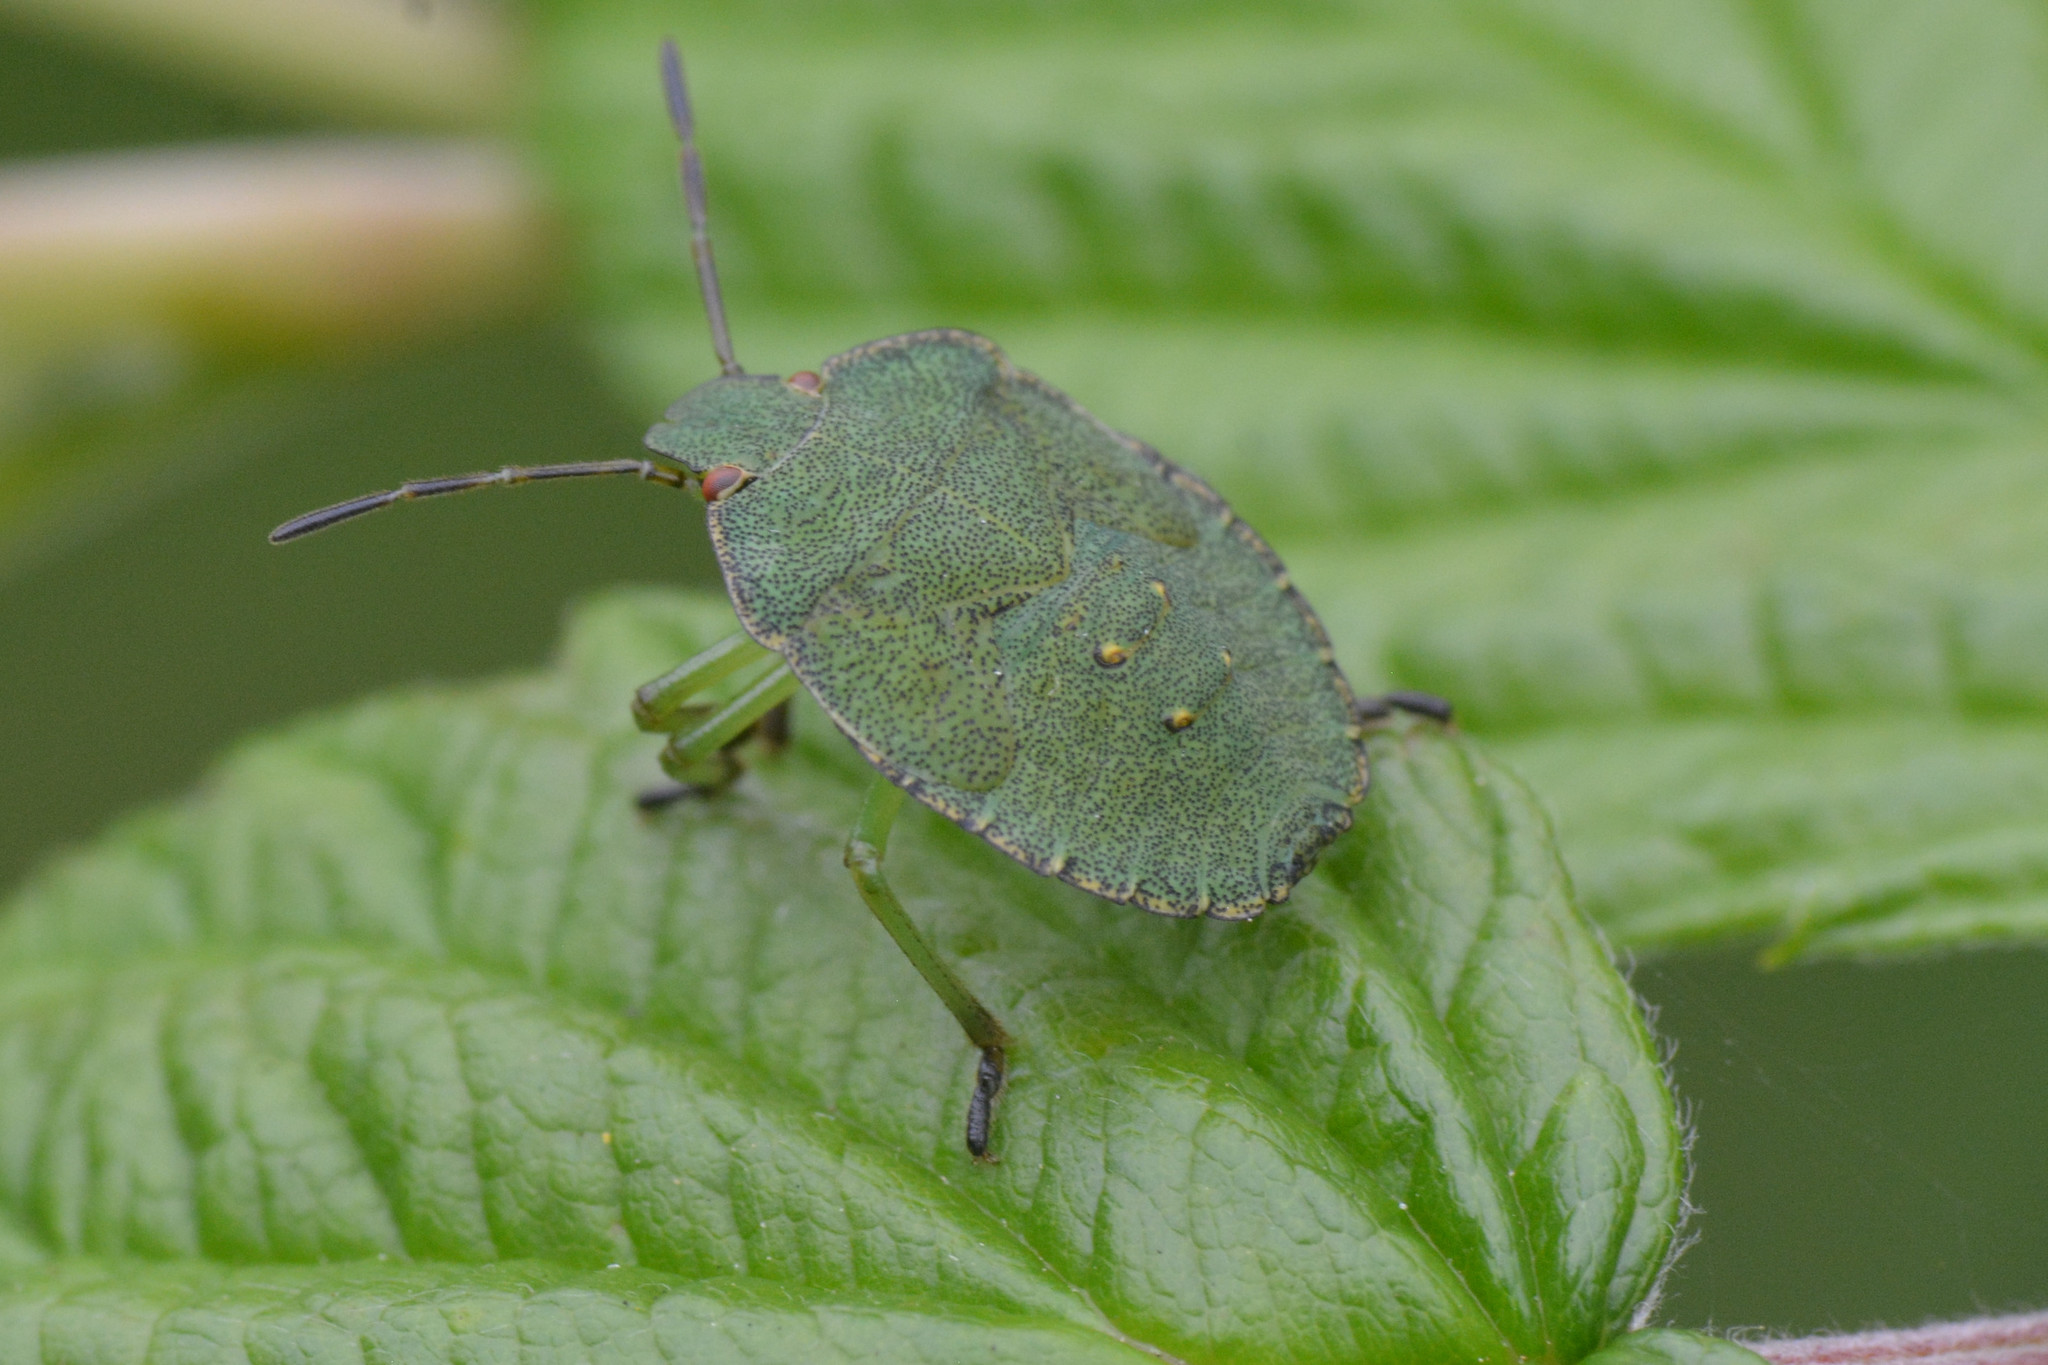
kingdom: Animalia
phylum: Arthropoda
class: Insecta
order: Hemiptera
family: Pentatomidae
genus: Palomena
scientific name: Palomena prasina
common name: Green shieldbug
